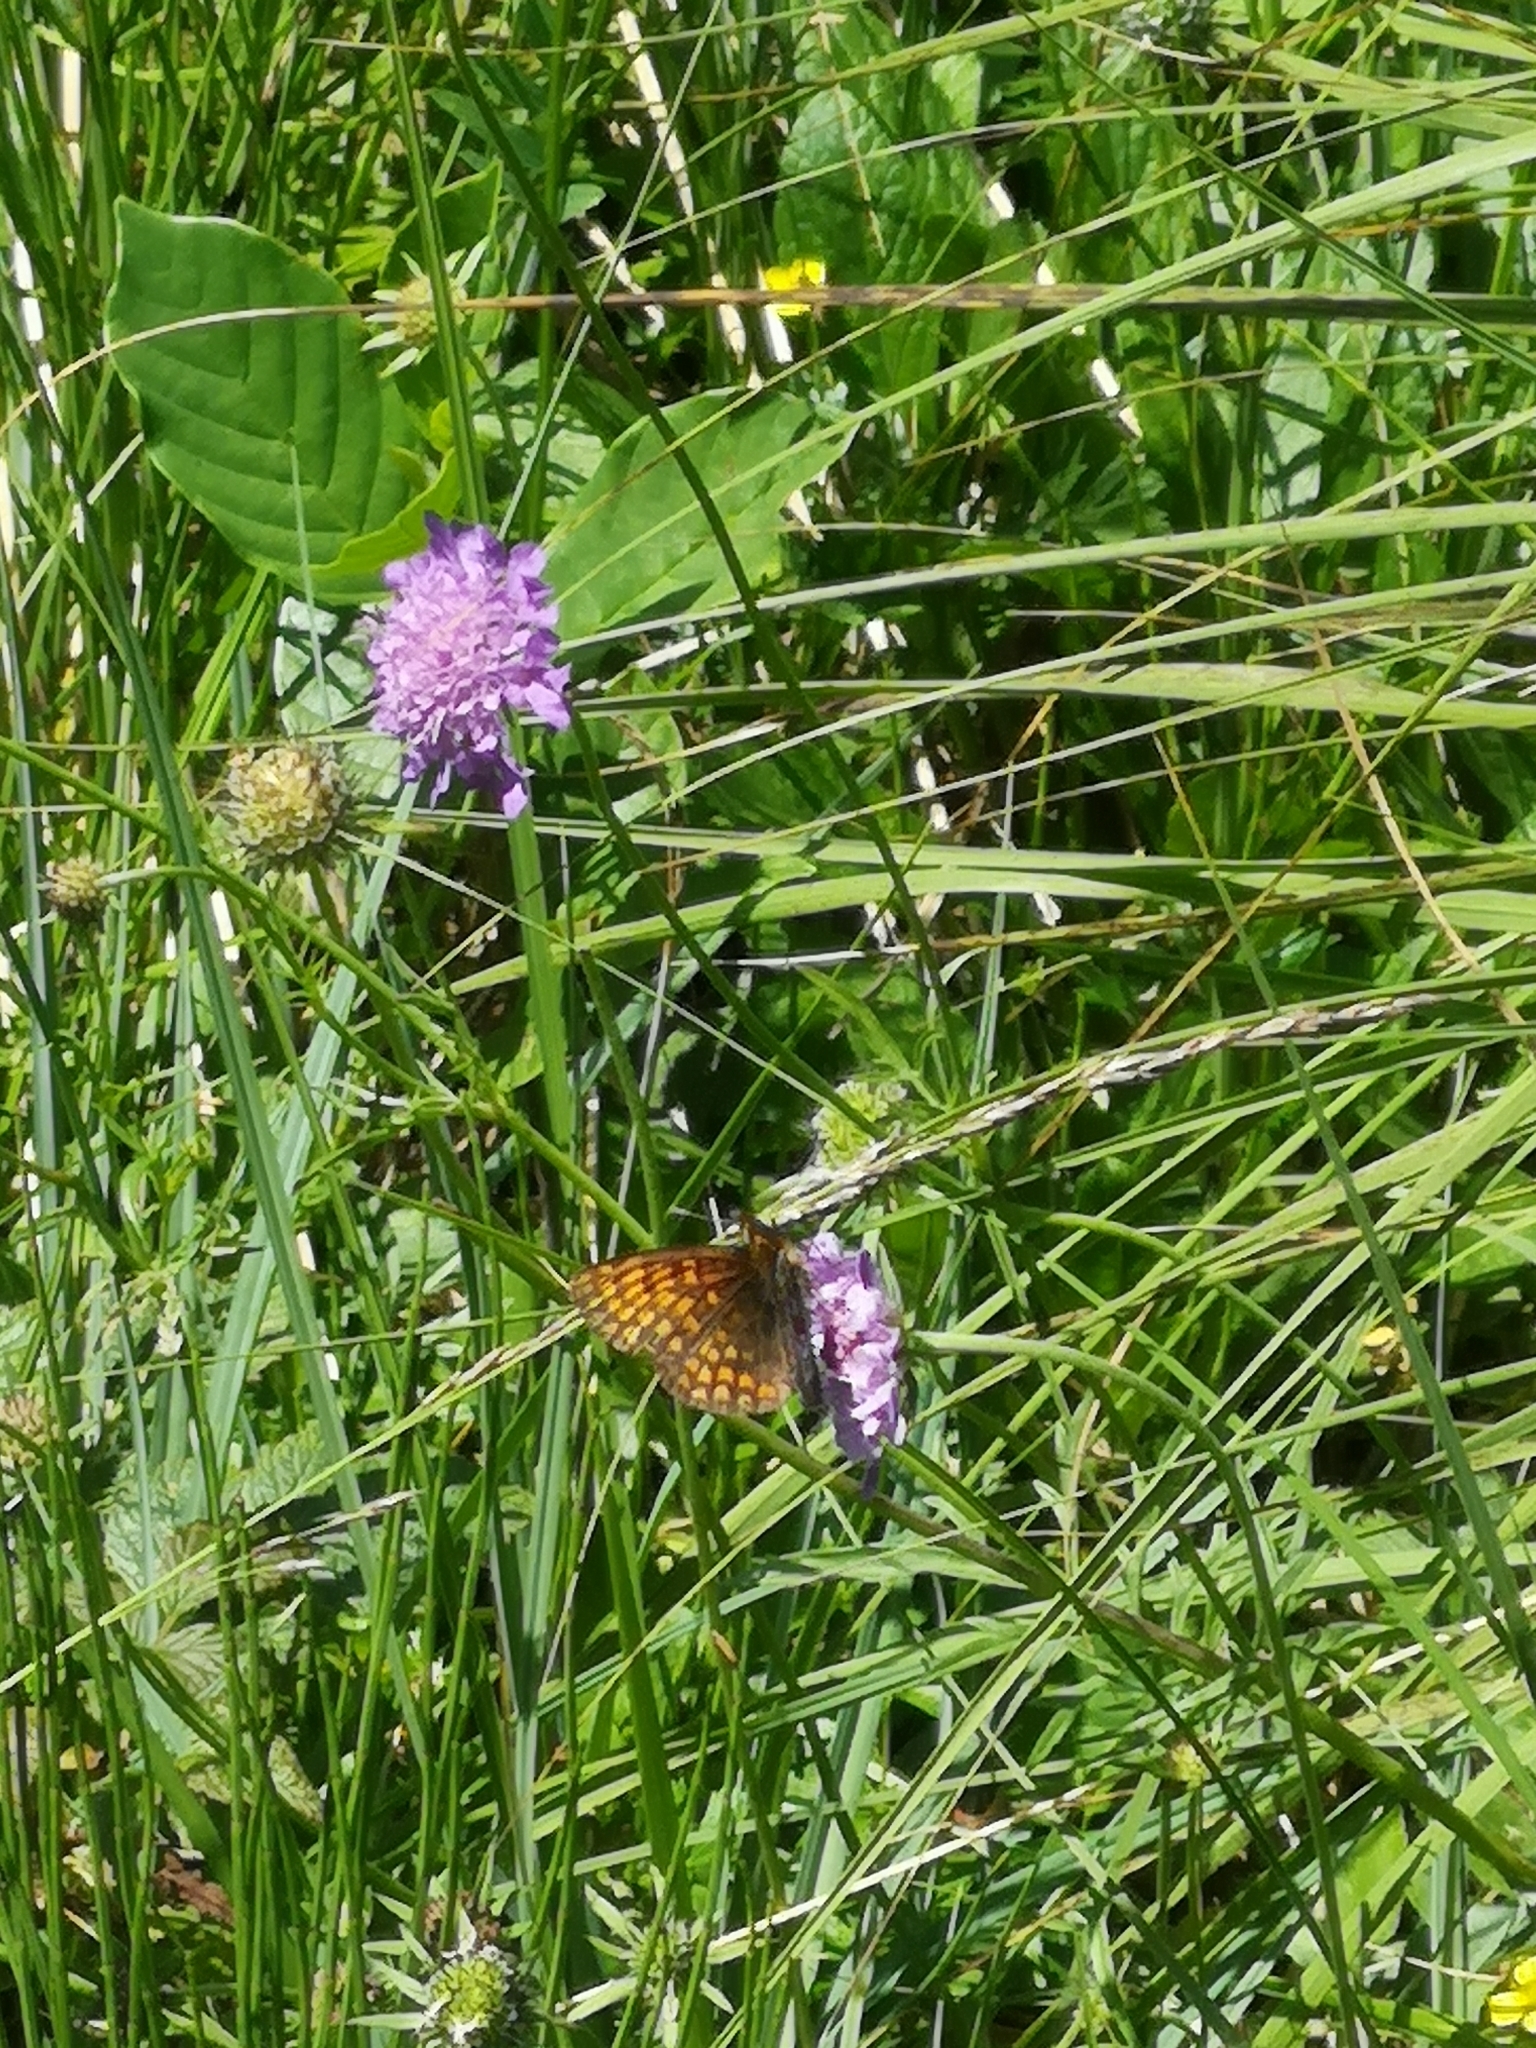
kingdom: Animalia
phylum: Arthropoda
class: Insecta
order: Lepidoptera
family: Nymphalidae
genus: Melitaea
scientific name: Melitaea athalia
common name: Heath fritillary
